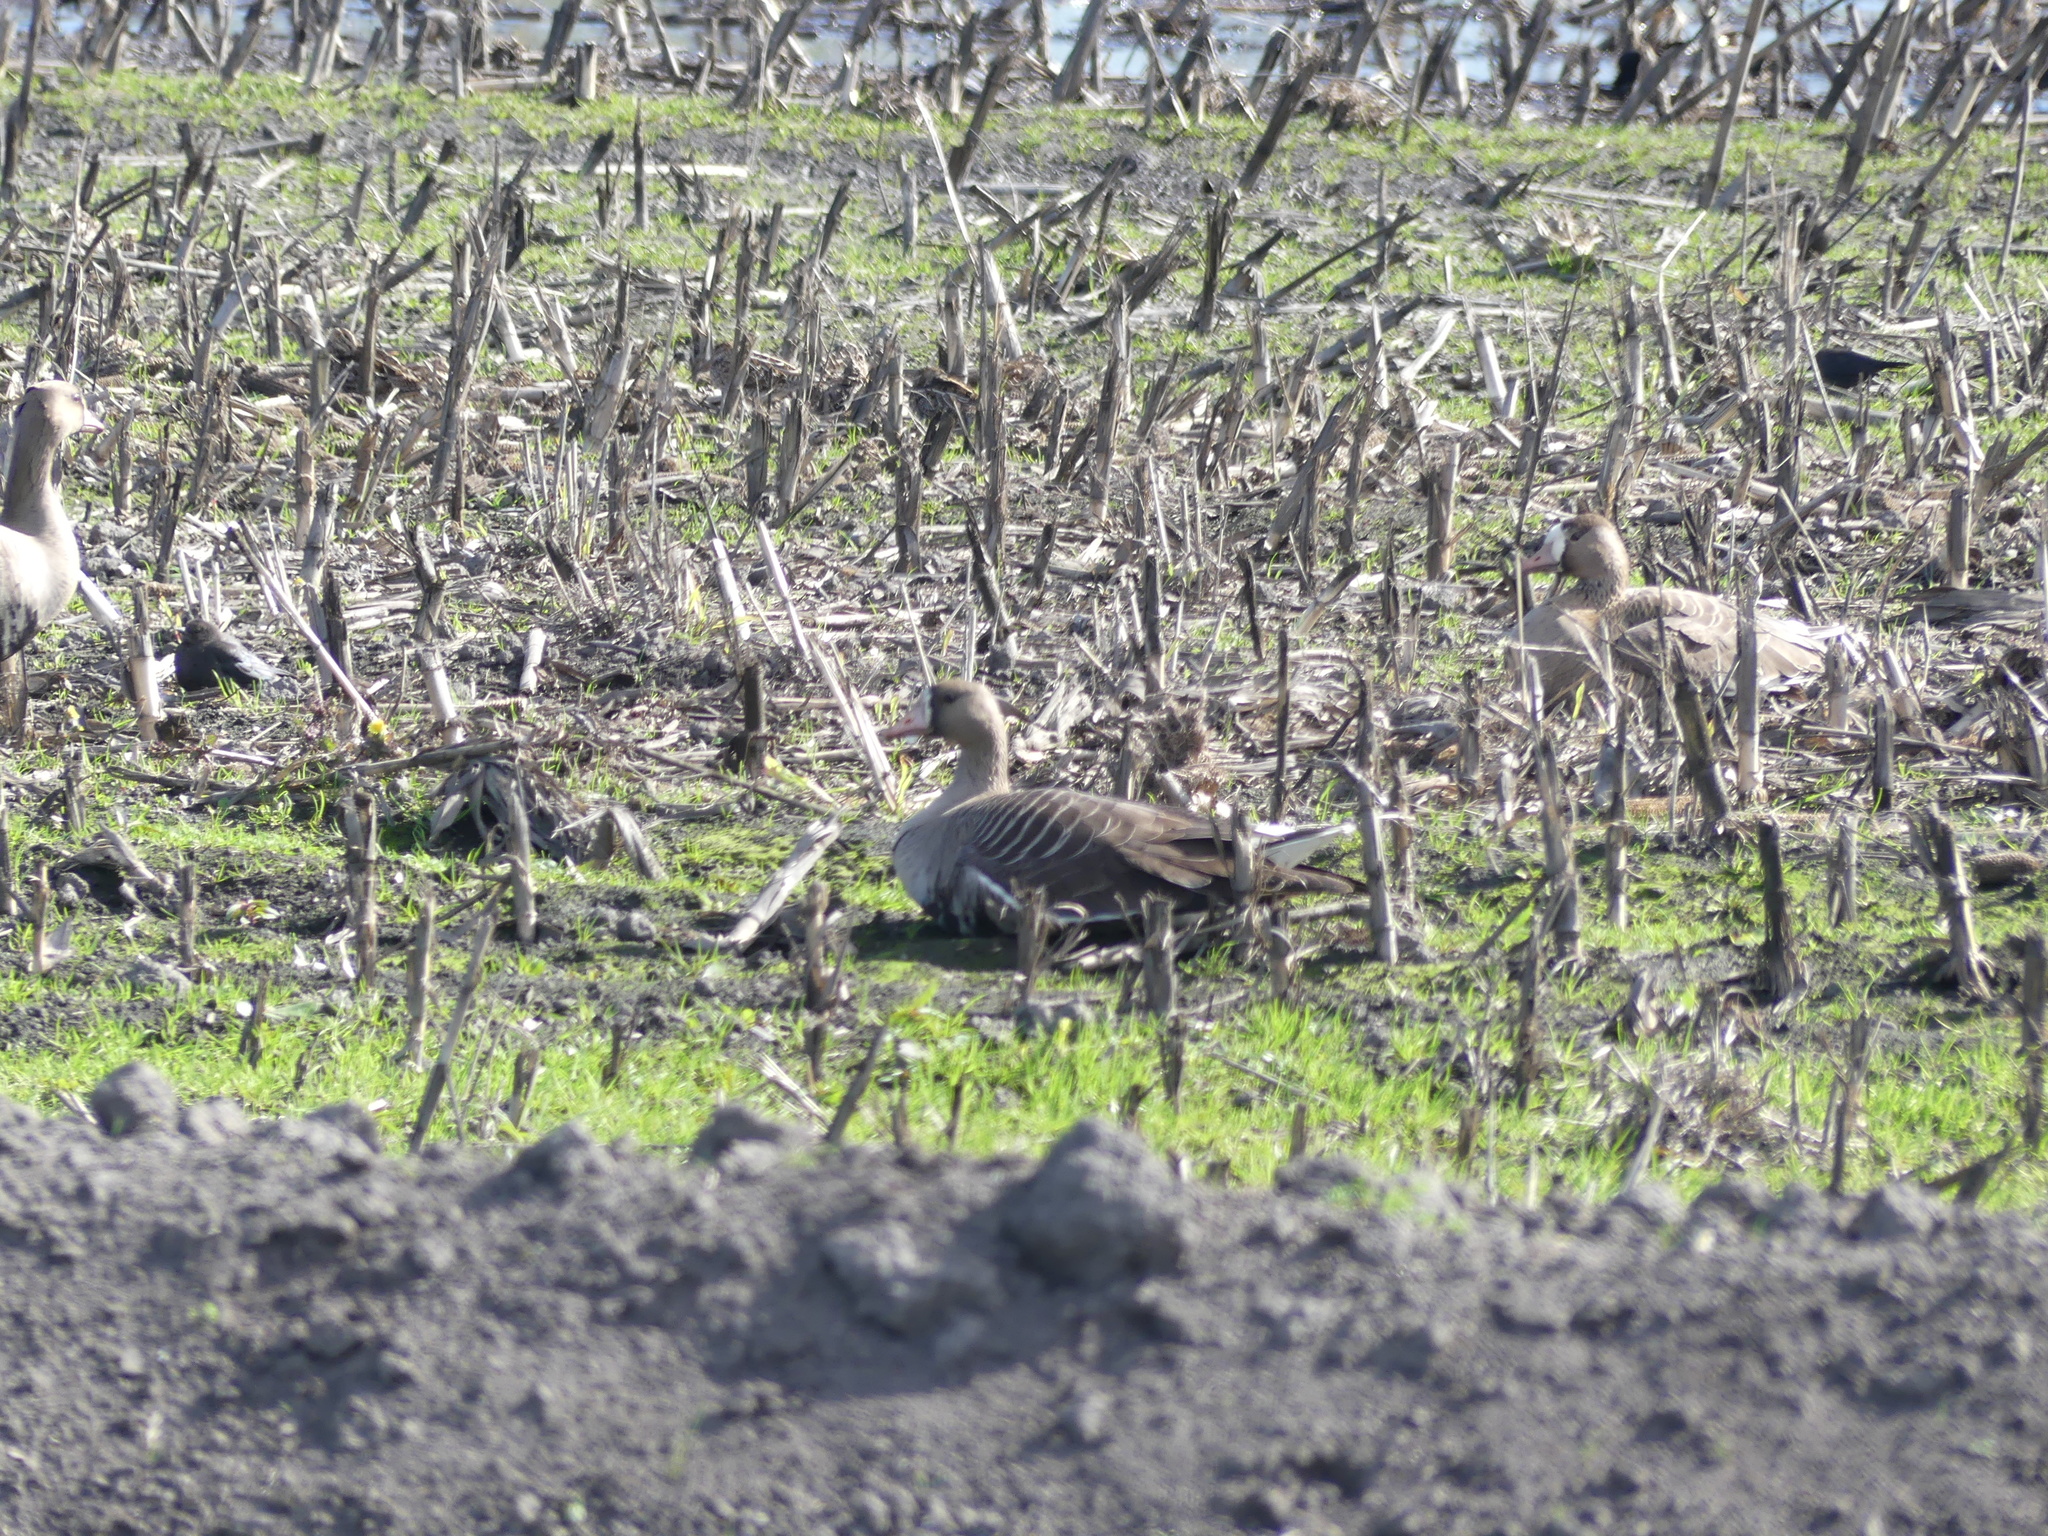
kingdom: Animalia
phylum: Chordata
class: Aves
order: Anseriformes
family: Anatidae
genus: Anser
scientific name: Anser albifrons
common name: Greater white-fronted goose
